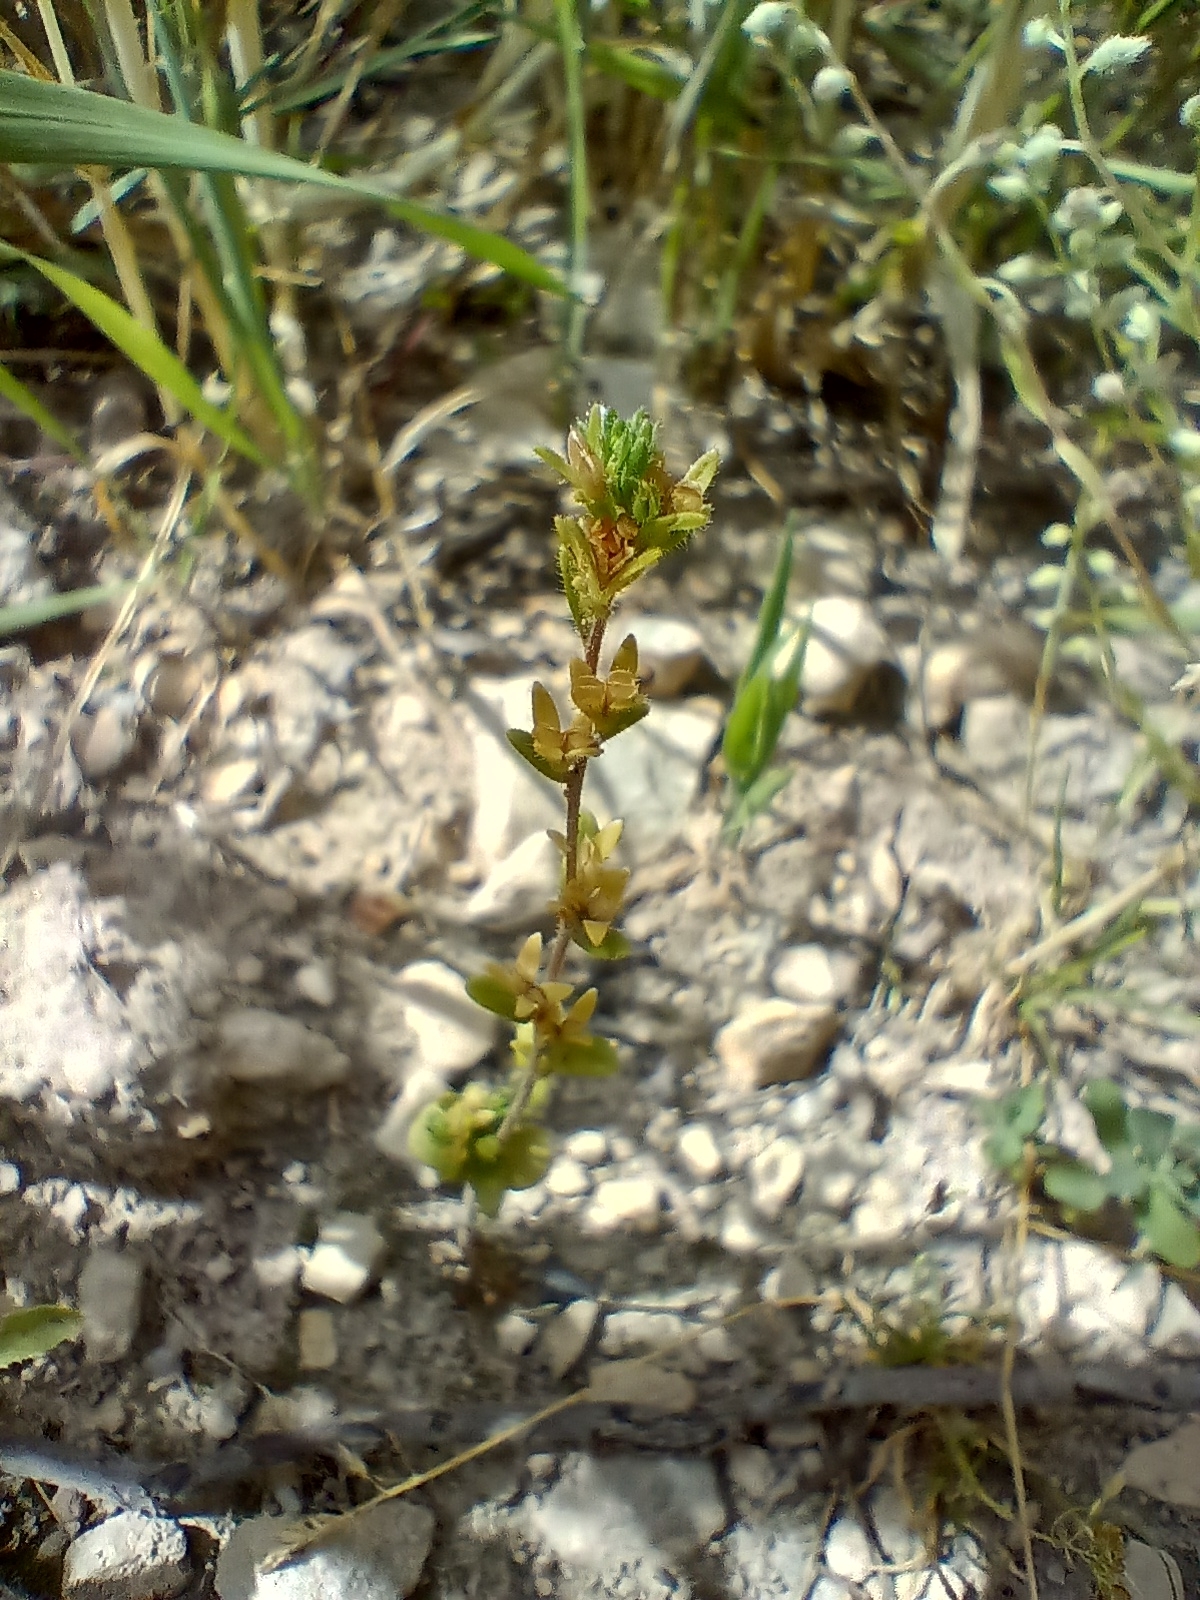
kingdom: Plantae
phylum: Tracheophyta
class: Magnoliopsida
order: Lamiales
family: Plantaginaceae
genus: Veronica
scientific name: Veronica arvensis
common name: Corn speedwell
